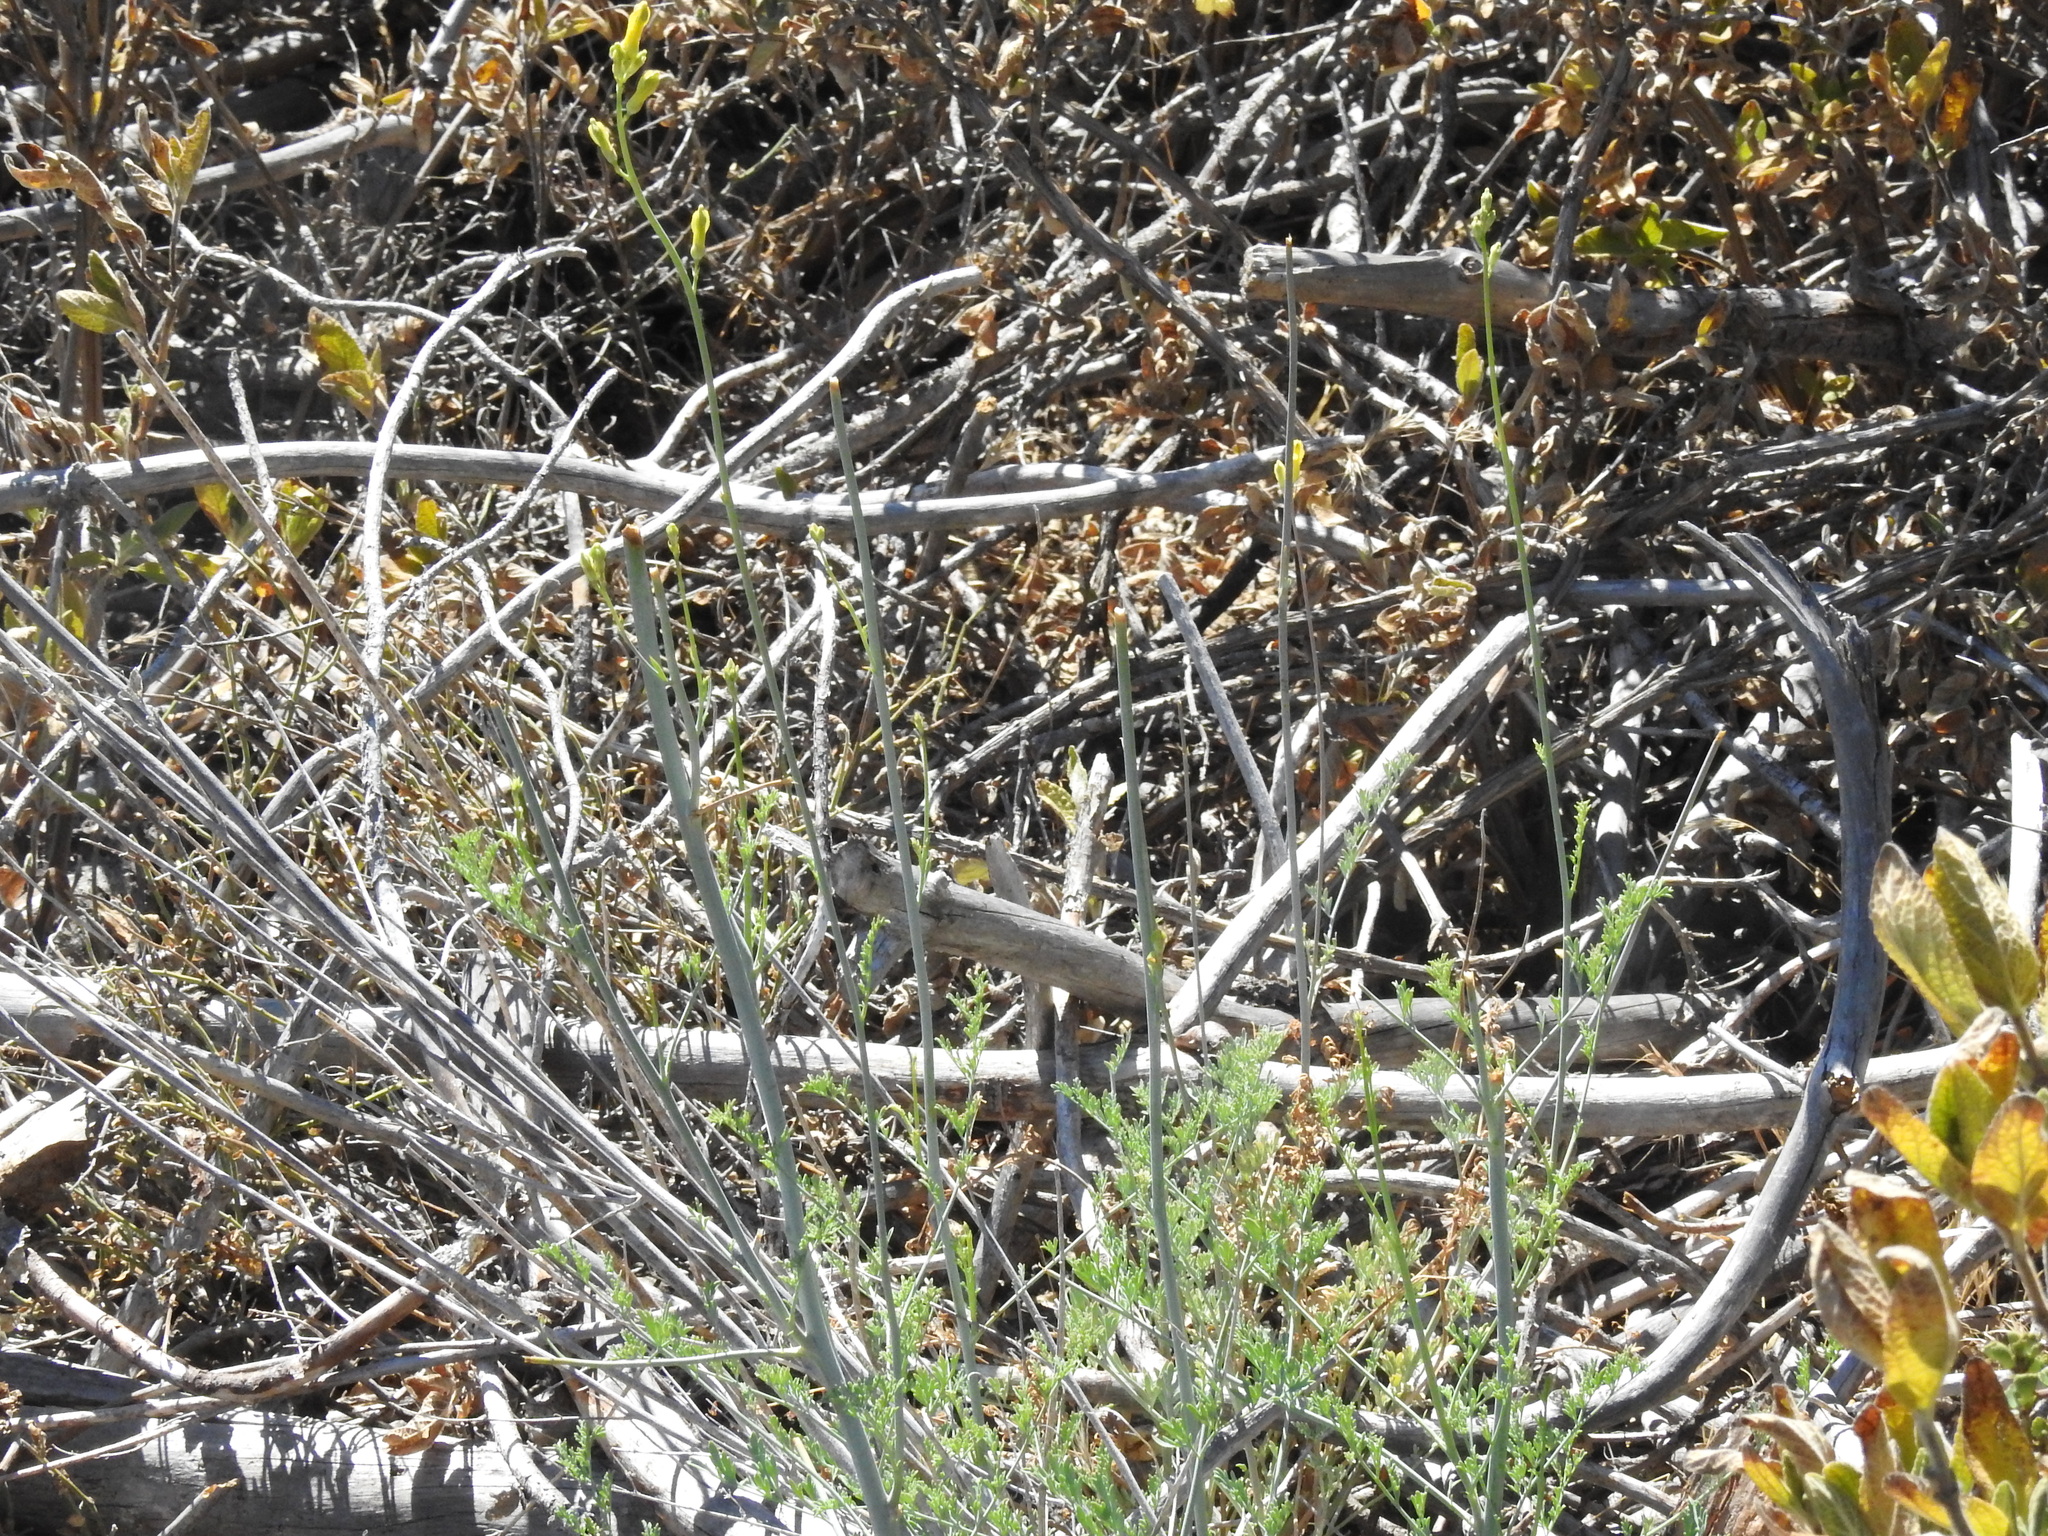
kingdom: Plantae
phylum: Tracheophyta
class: Magnoliopsida
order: Ranunculales
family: Papaveraceae
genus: Ehrendorferia
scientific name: Ehrendorferia chrysantha
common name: Golden eardrops
